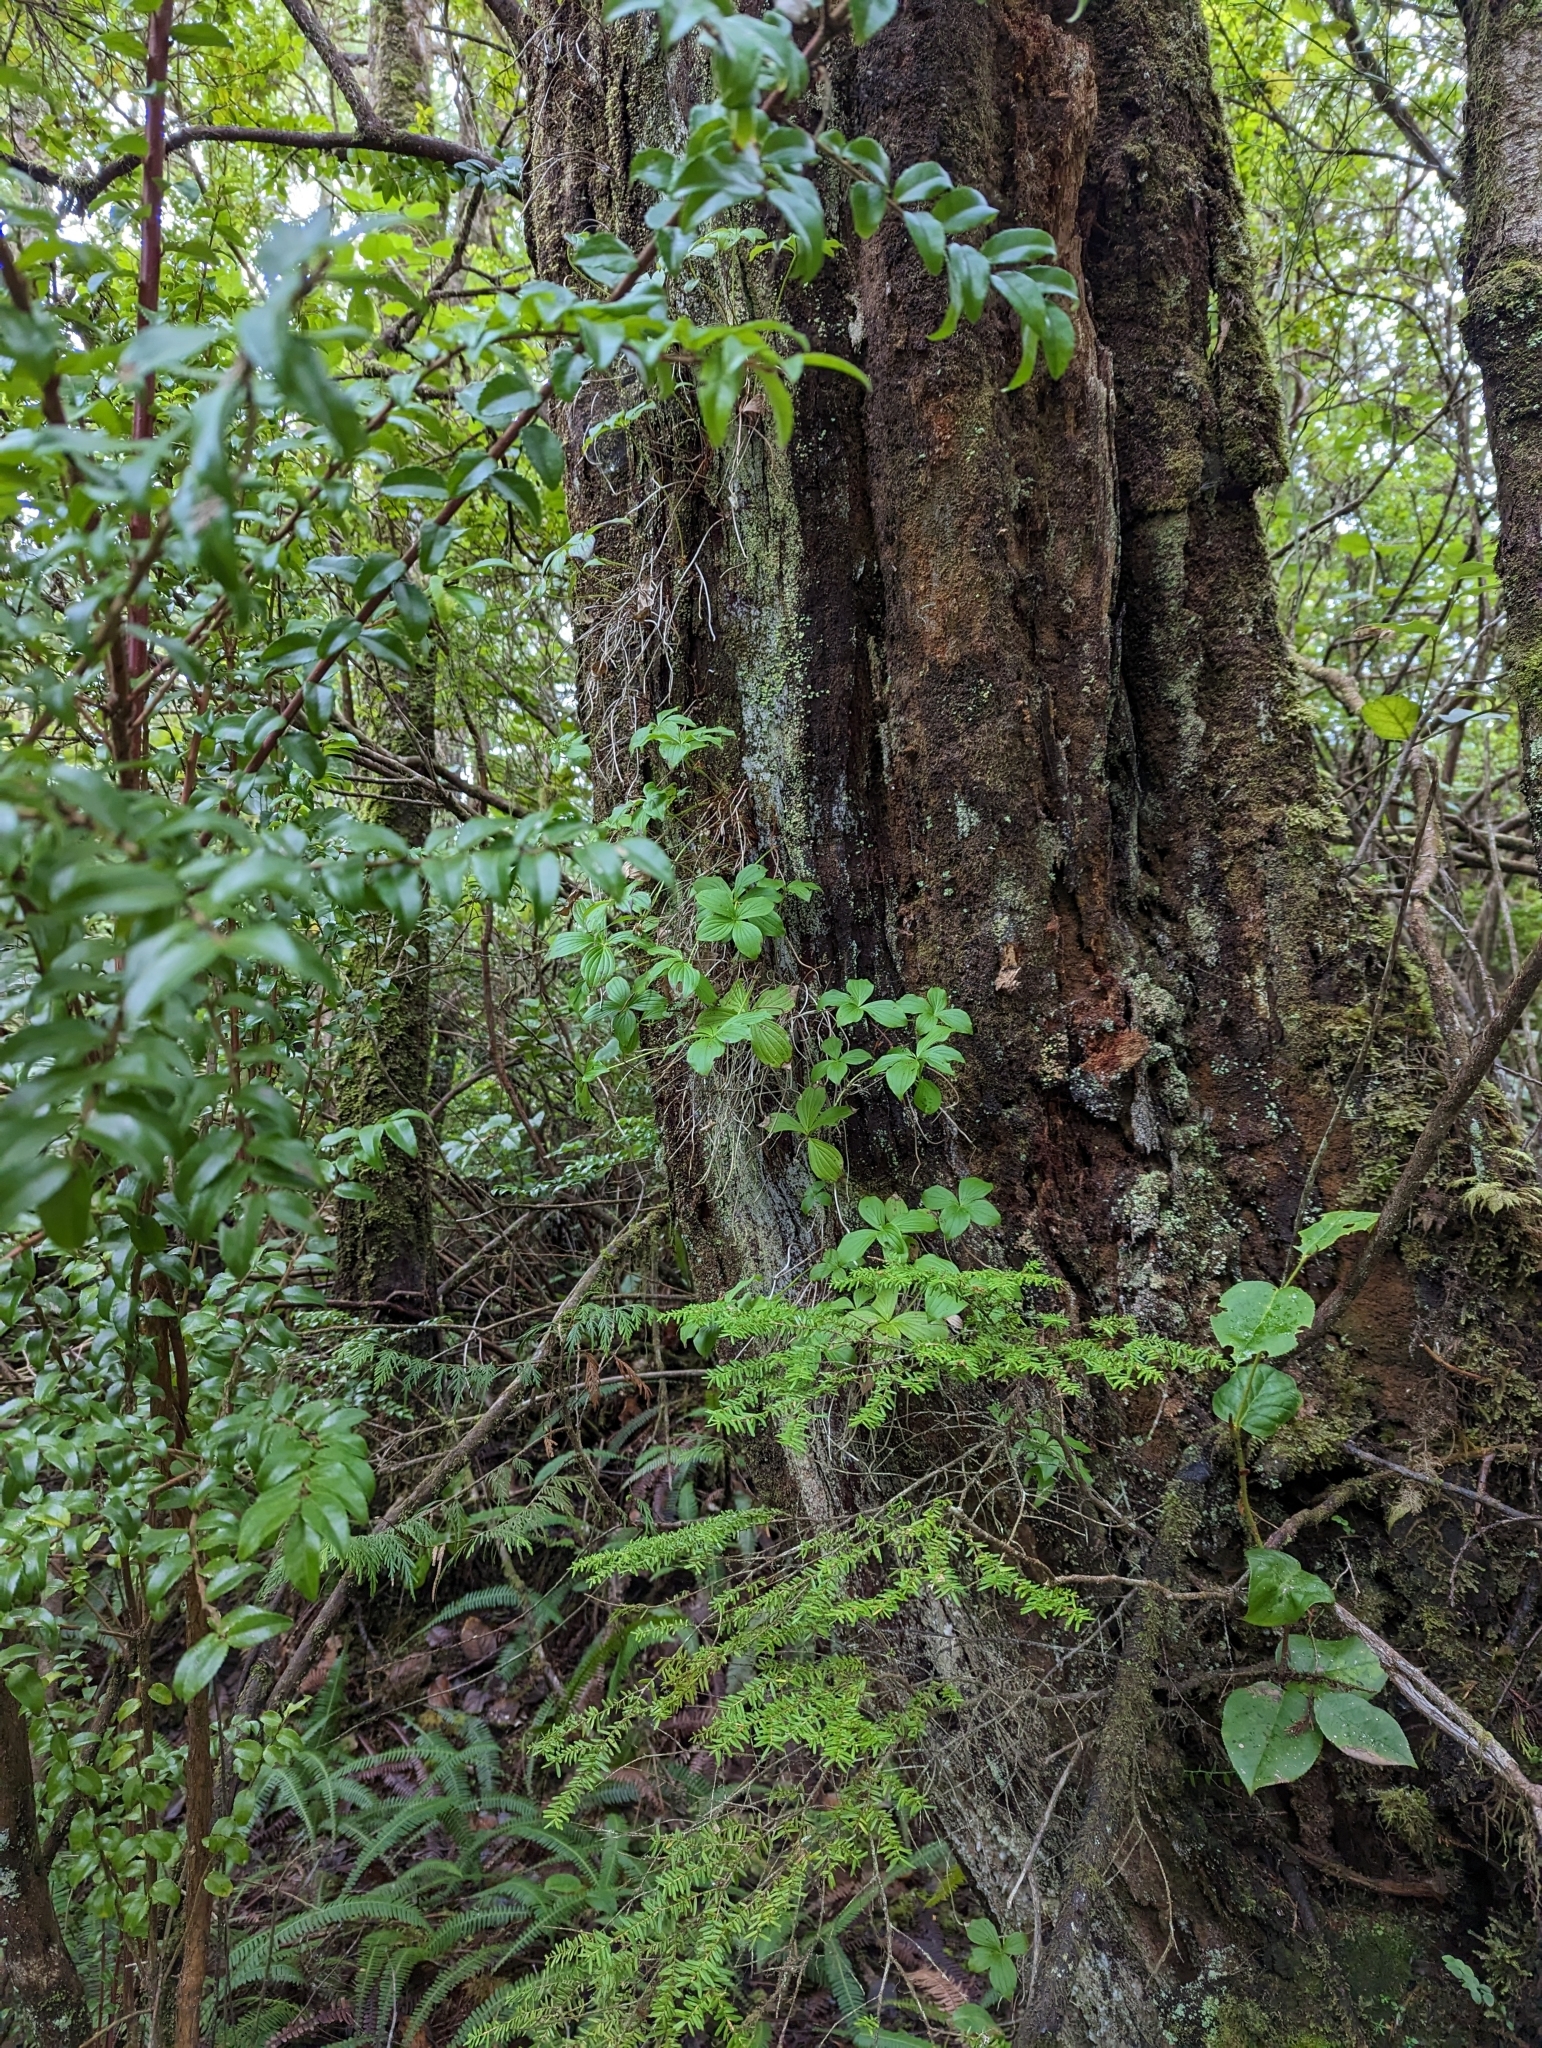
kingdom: Plantae
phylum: Tracheophyta
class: Magnoliopsida
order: Cornales
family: Cornaceae
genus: Cornus
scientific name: Cornus unalaschkensis
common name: Alaska bunchberry
